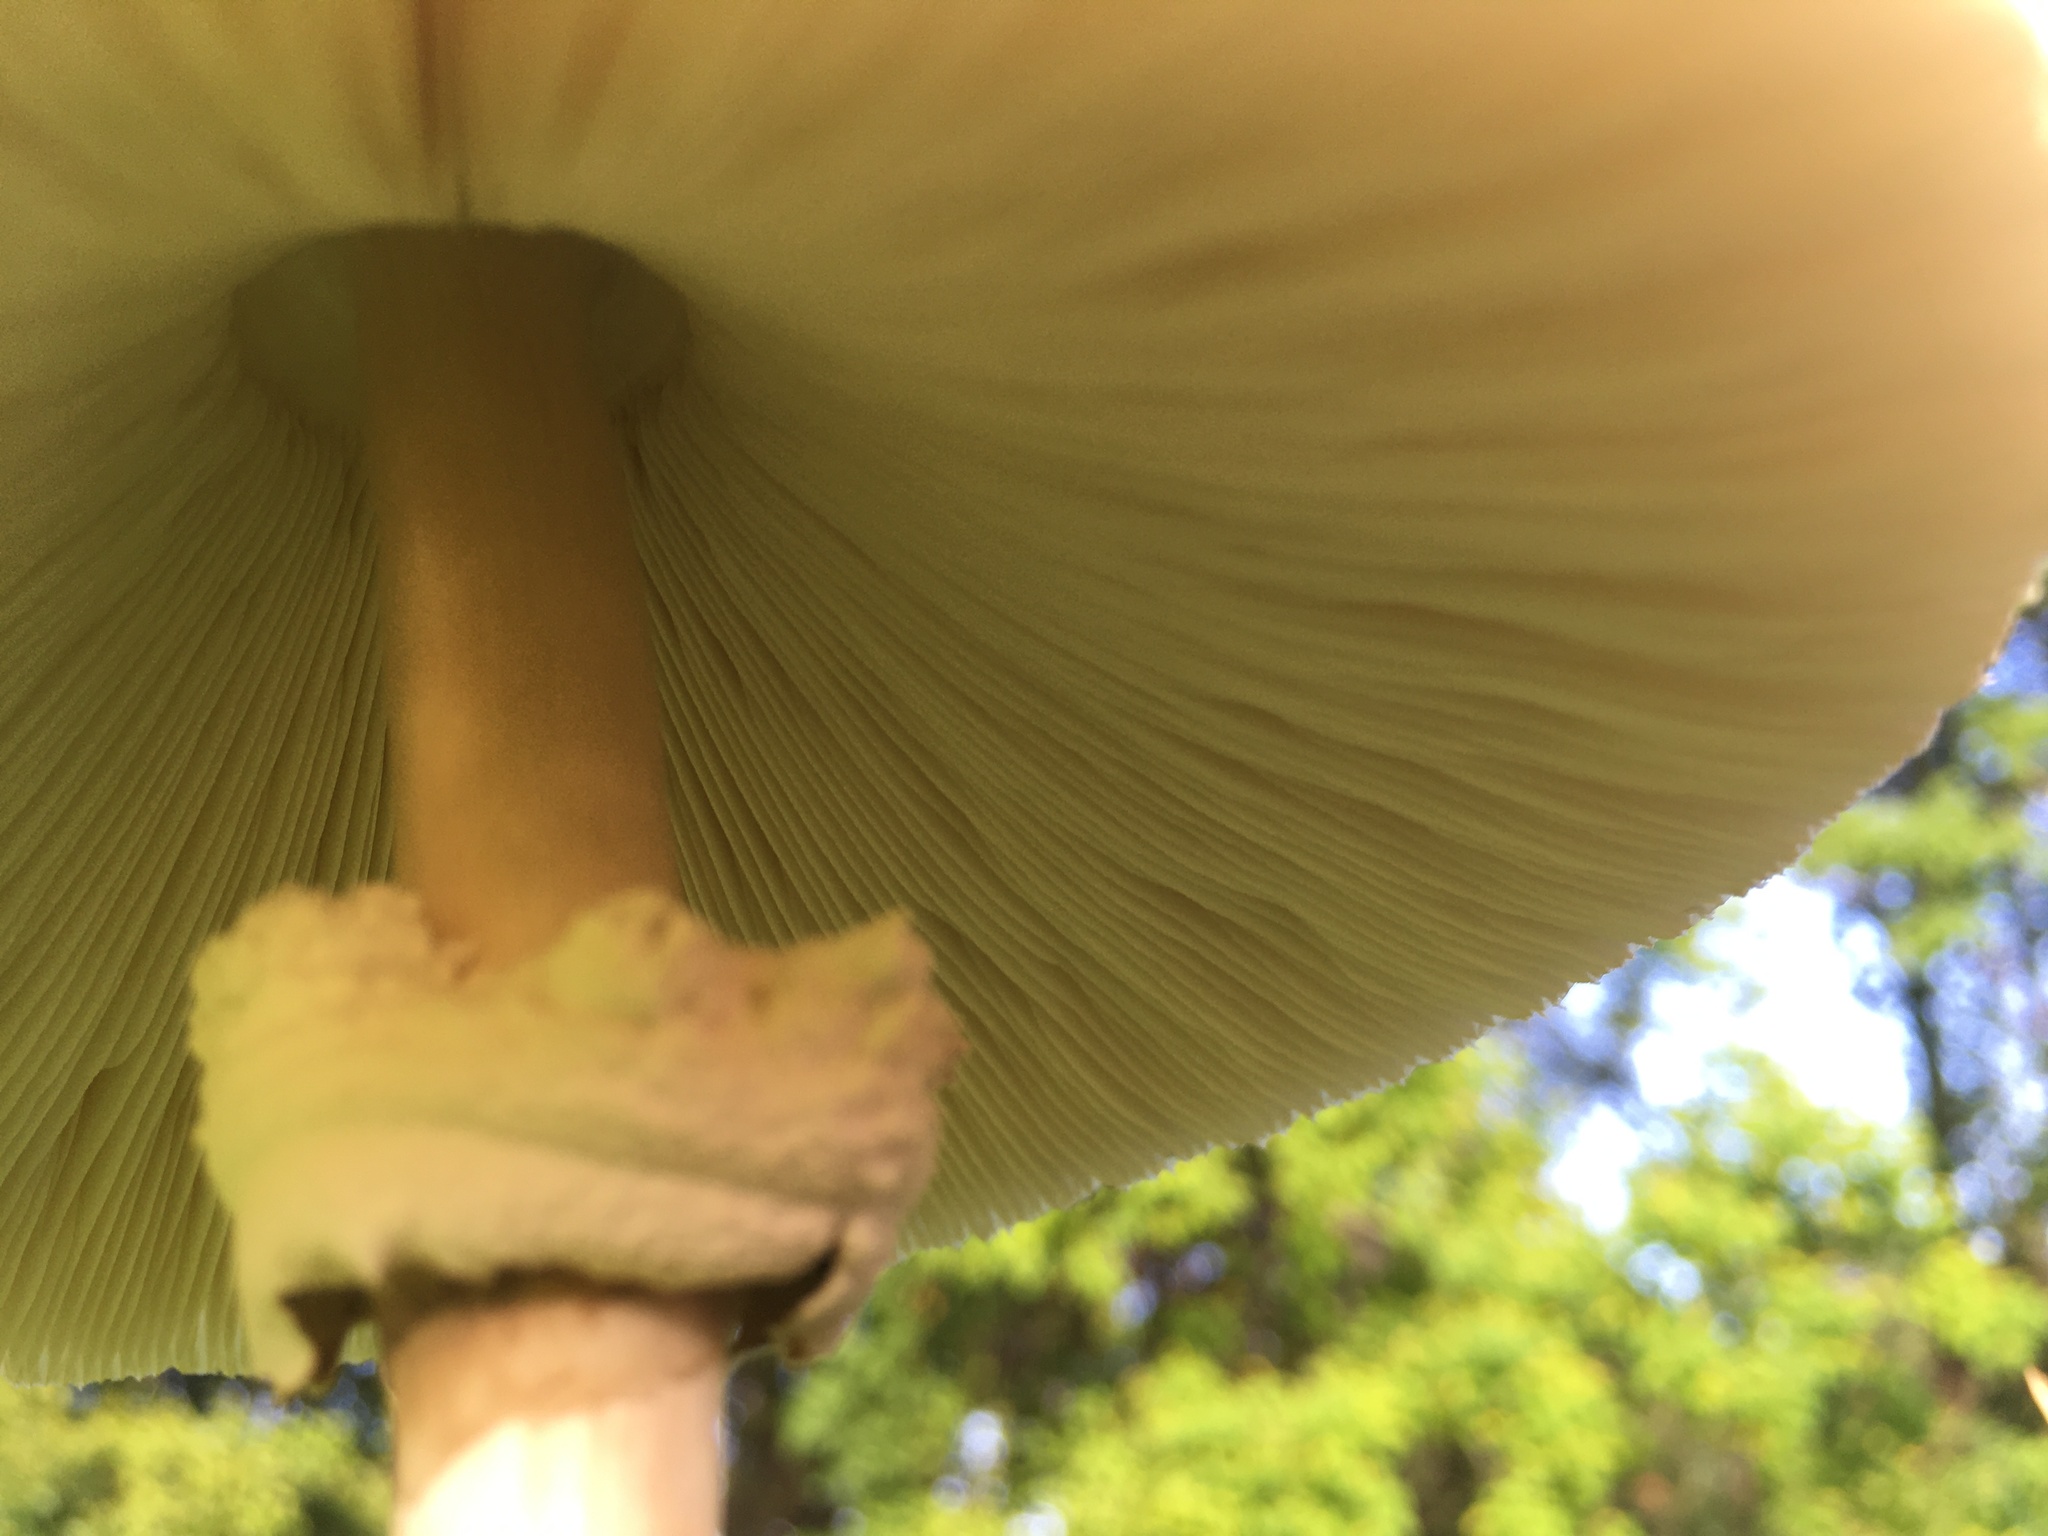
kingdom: Fungi
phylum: Basidiomycota
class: Agaricomycetes
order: Agaricales
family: Agaricaceae
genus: Chlorophyllum
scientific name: Chlorophyllum molybdites
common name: False parasol
